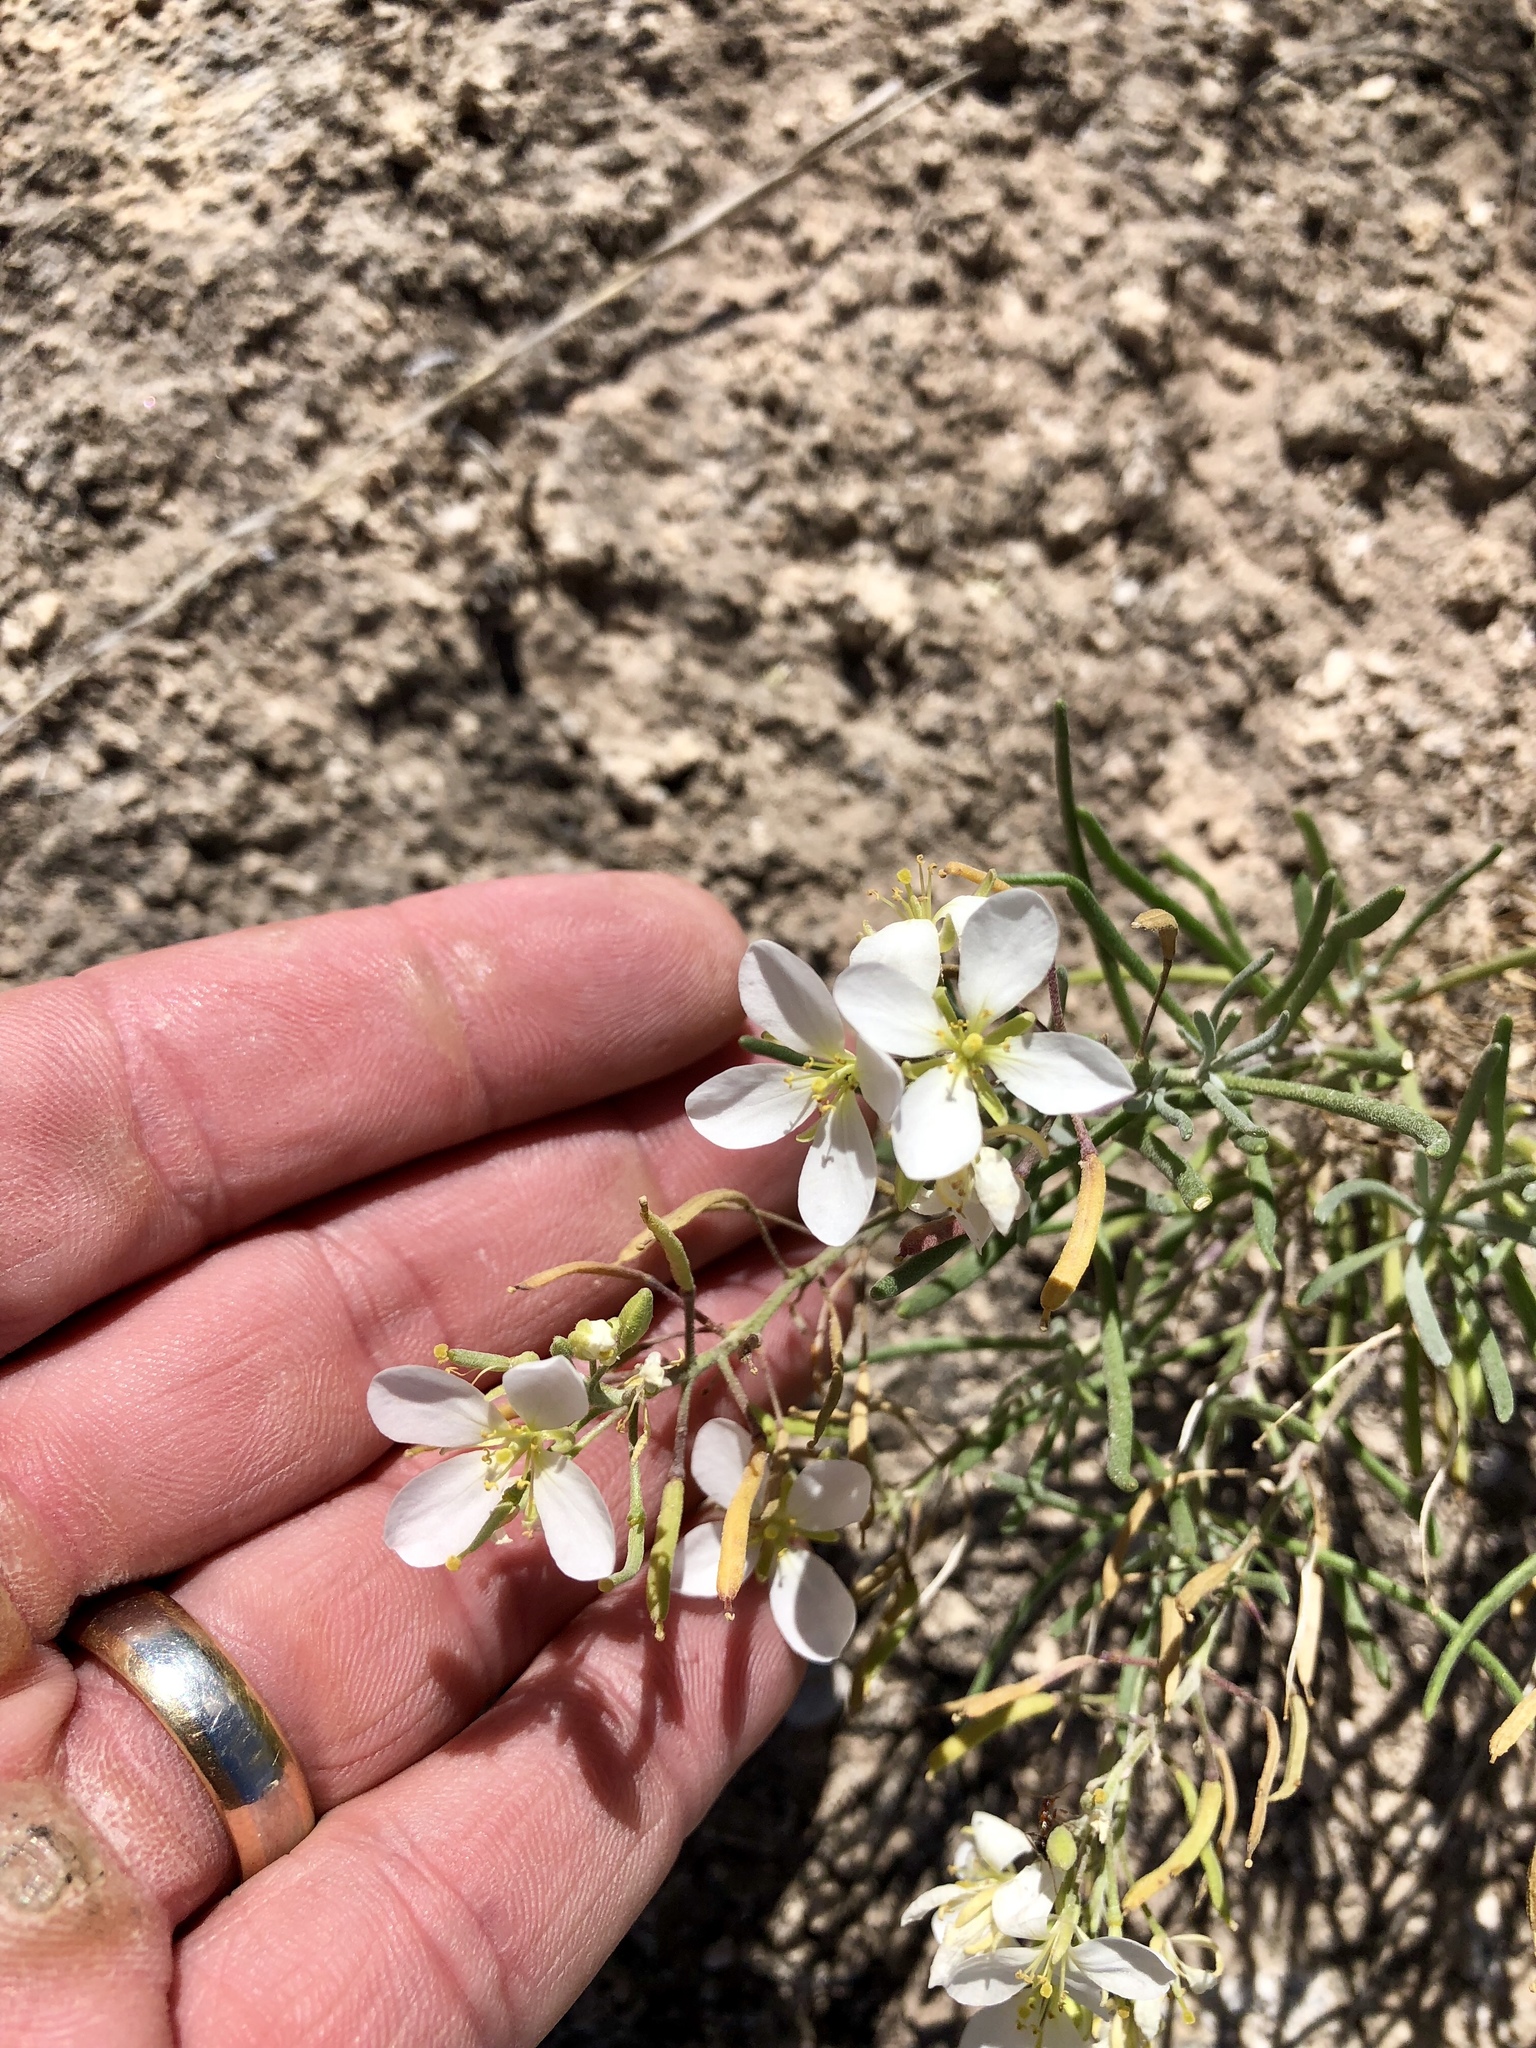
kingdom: Plantae
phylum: Tracheophyta
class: Magnoliopsida
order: Brassicales
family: Brassicaceae
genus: Nerisyrenia
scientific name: Nerisyrenia camporum
